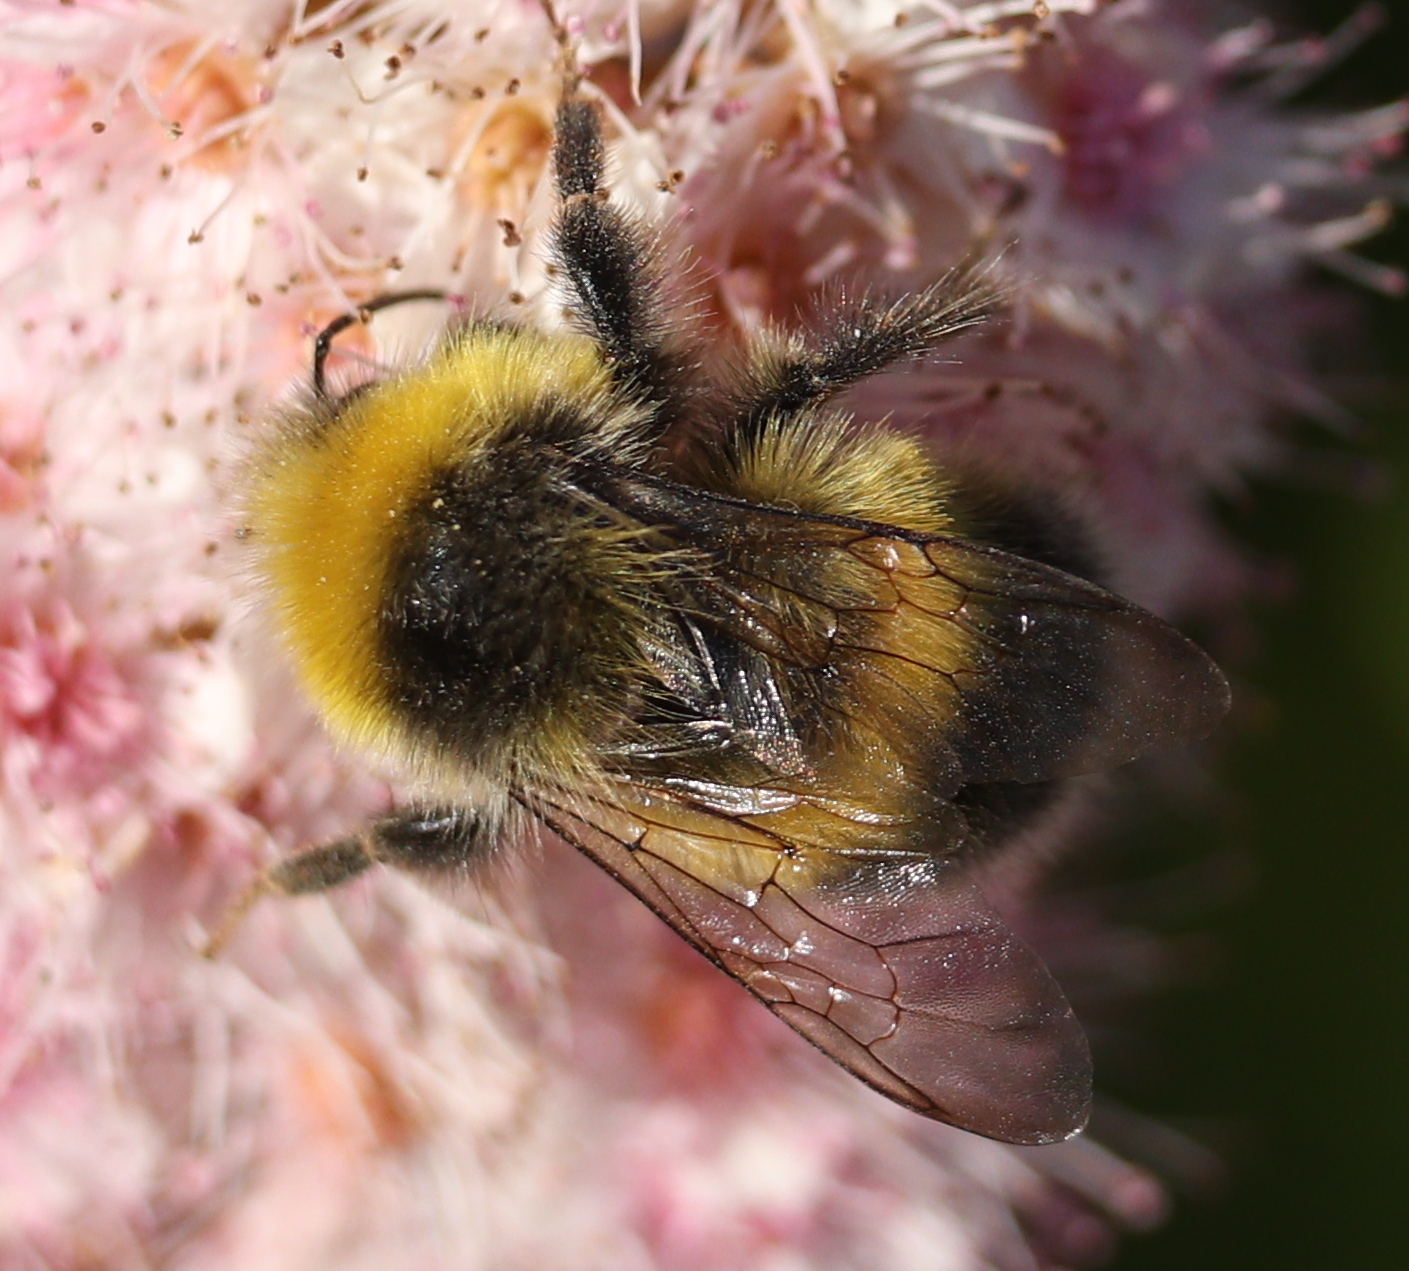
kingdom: Animalia
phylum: Arthropoda
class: Insecta
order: Hymenoptera
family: Apidae
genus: Bombus
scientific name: Bombus lucorum
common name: White-tailed bumblebee
